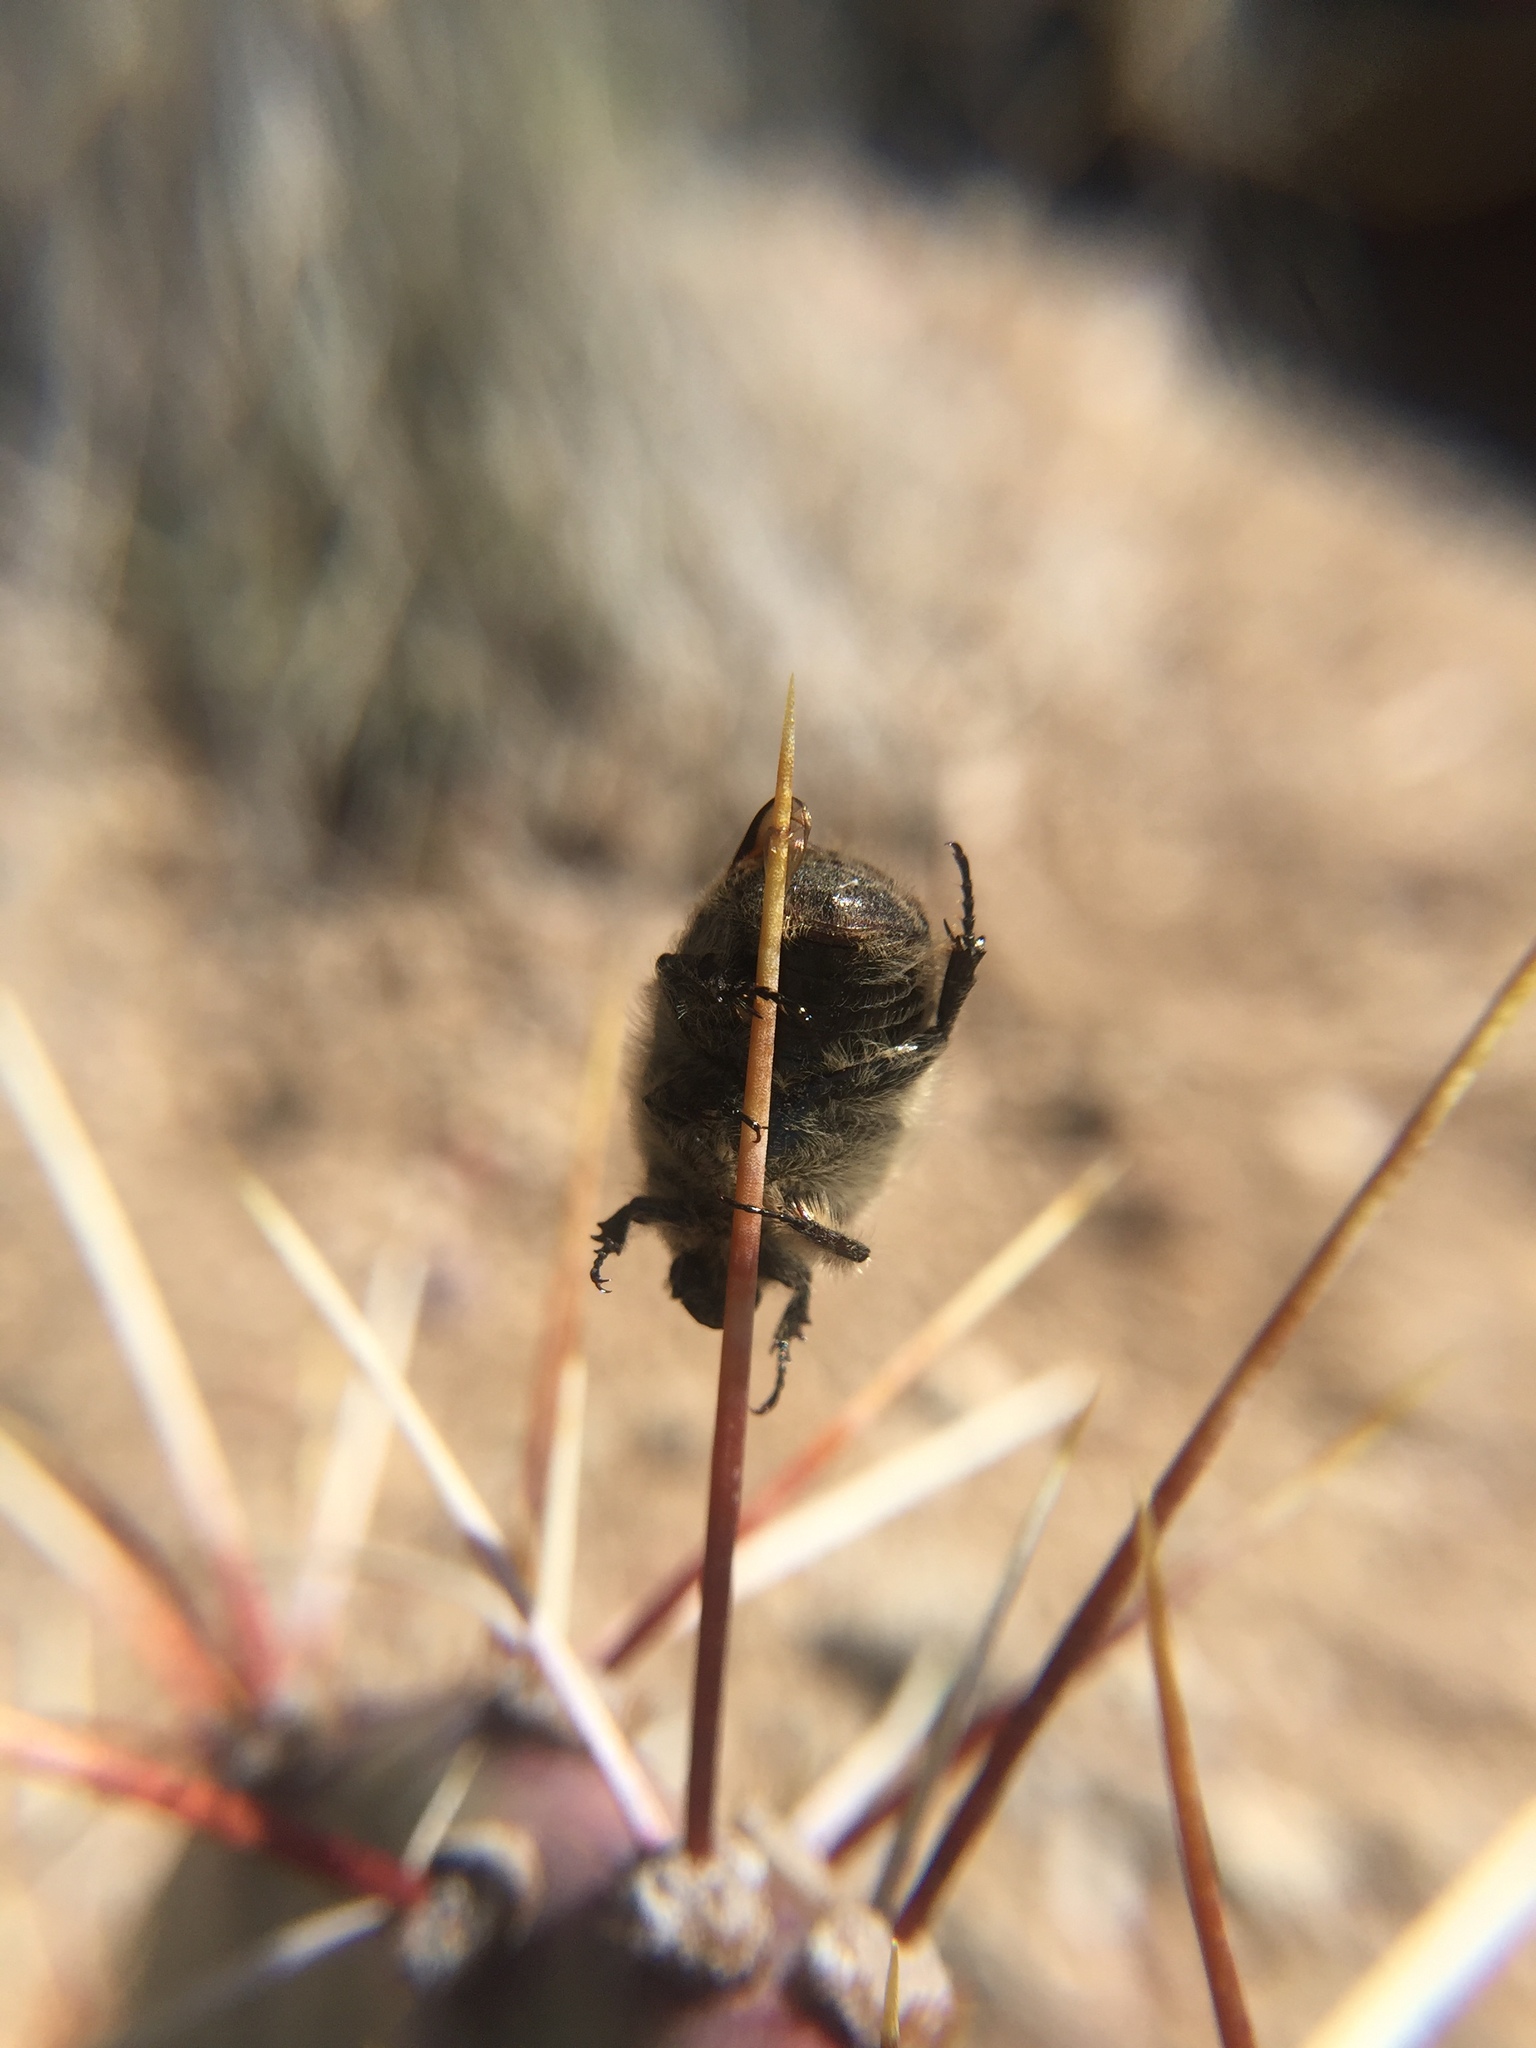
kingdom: Animalia
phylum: Arthropoda
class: Insecta
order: Coleoptera
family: Scarabaeidae
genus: Euphoria
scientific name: Euphoria inda
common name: Bumble flower beetle
